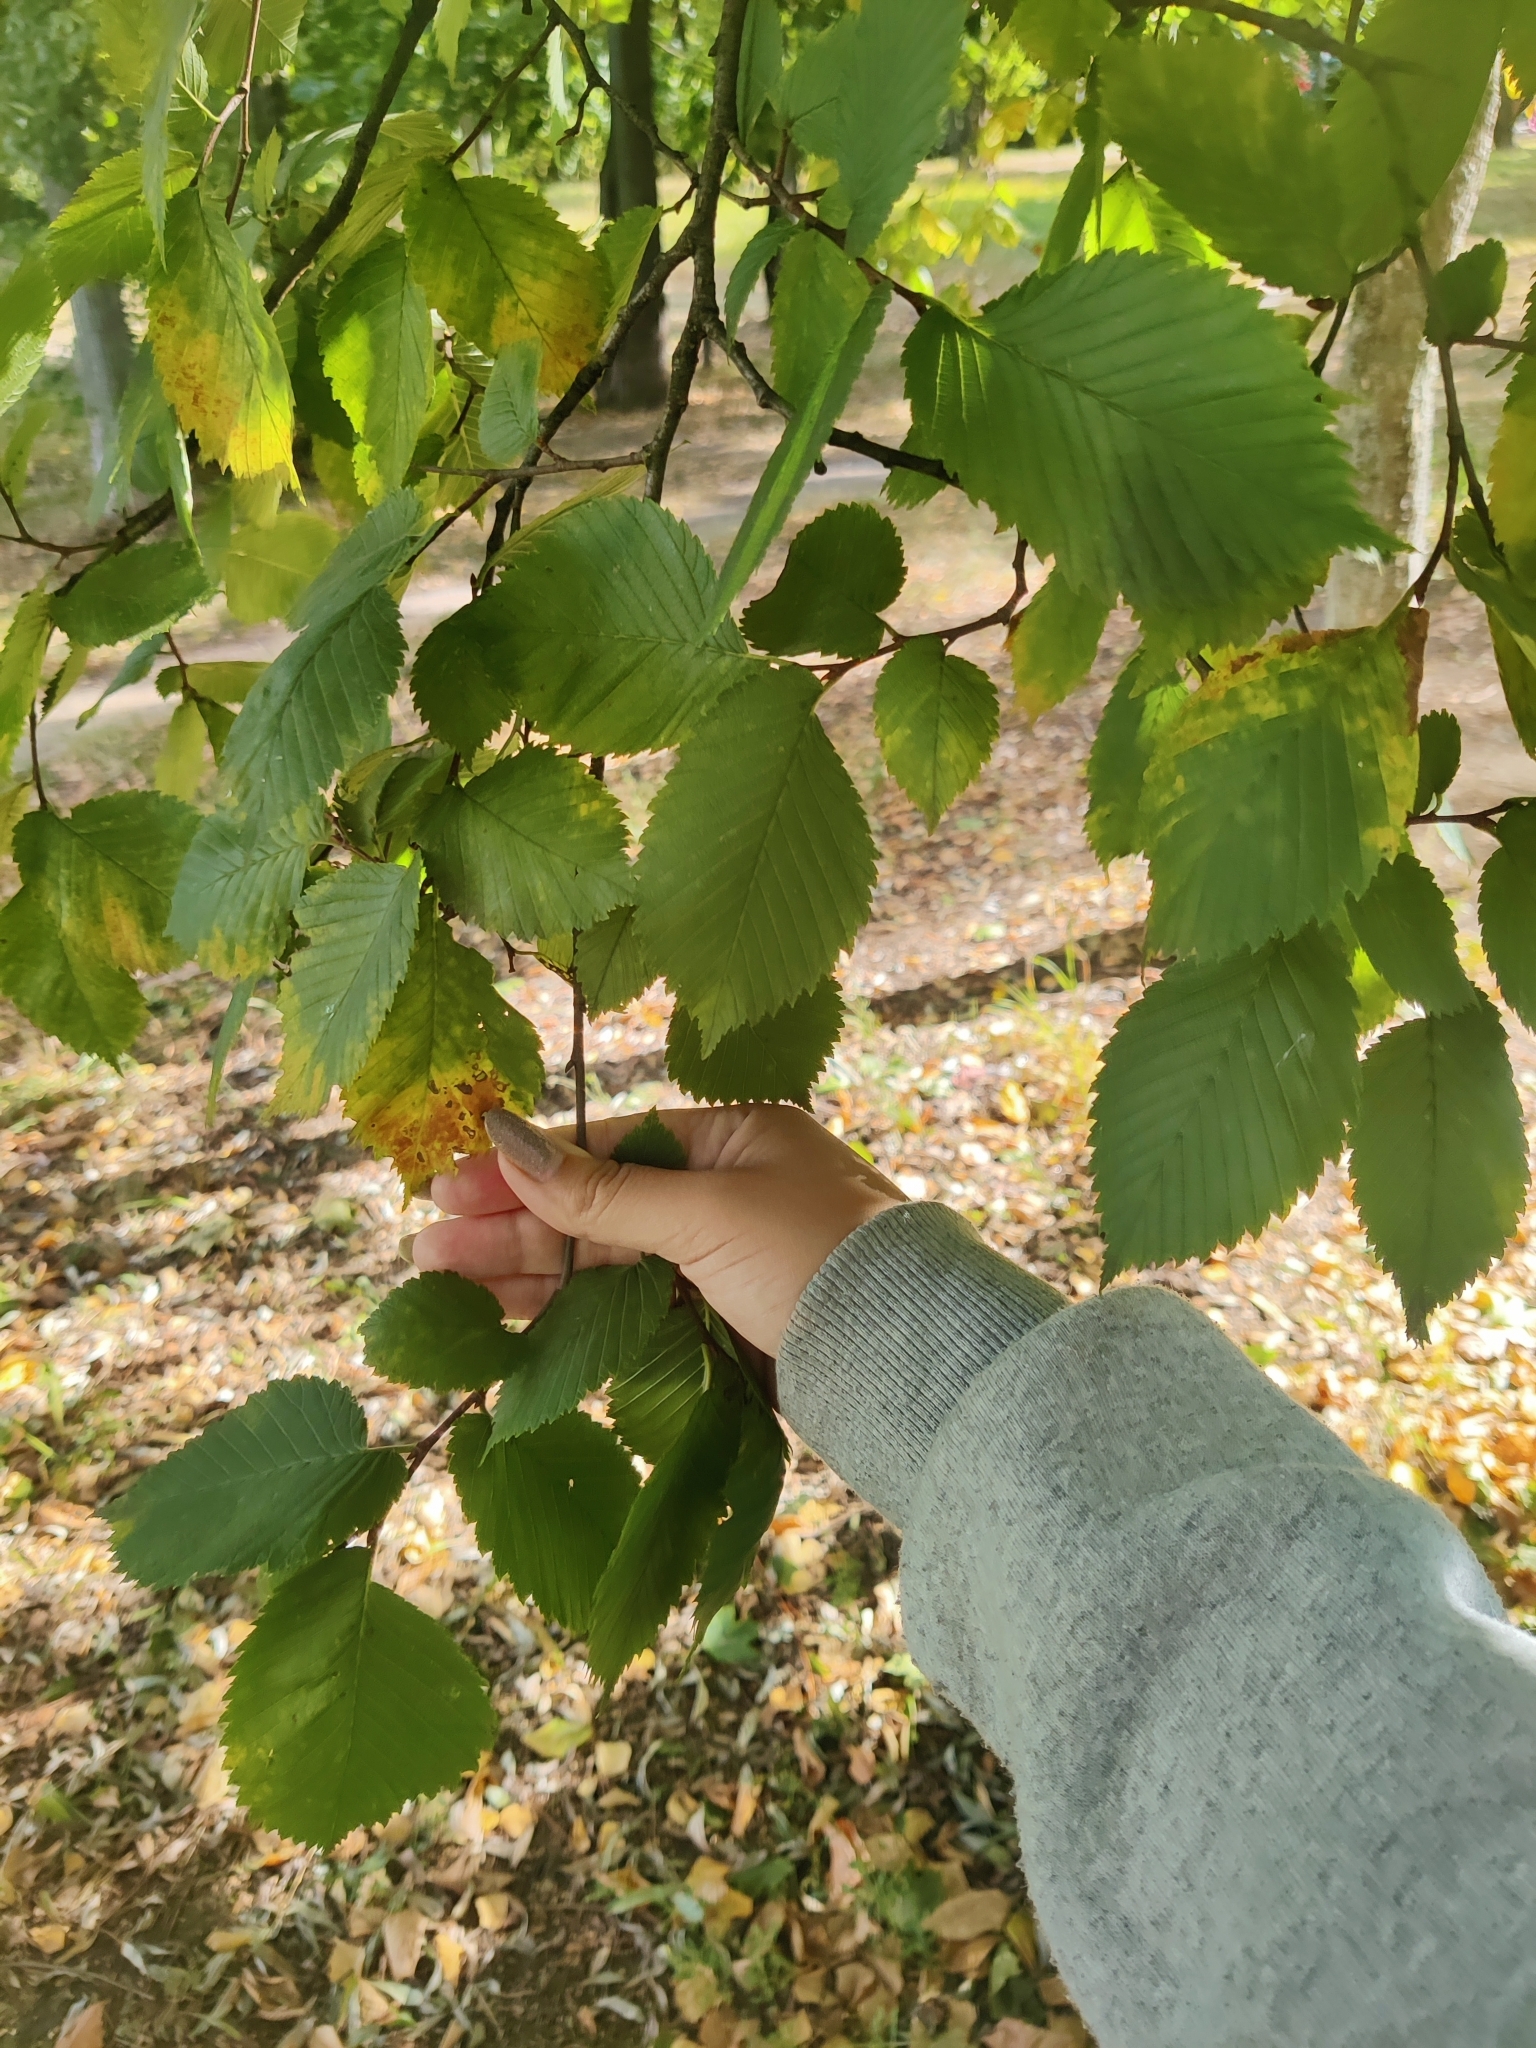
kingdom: Plantae
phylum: Tracheophyta
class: Magnoliopsida
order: Rosales
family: Ulmaceae
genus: Ulmus
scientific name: Ulmus laevis
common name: European white-elm
